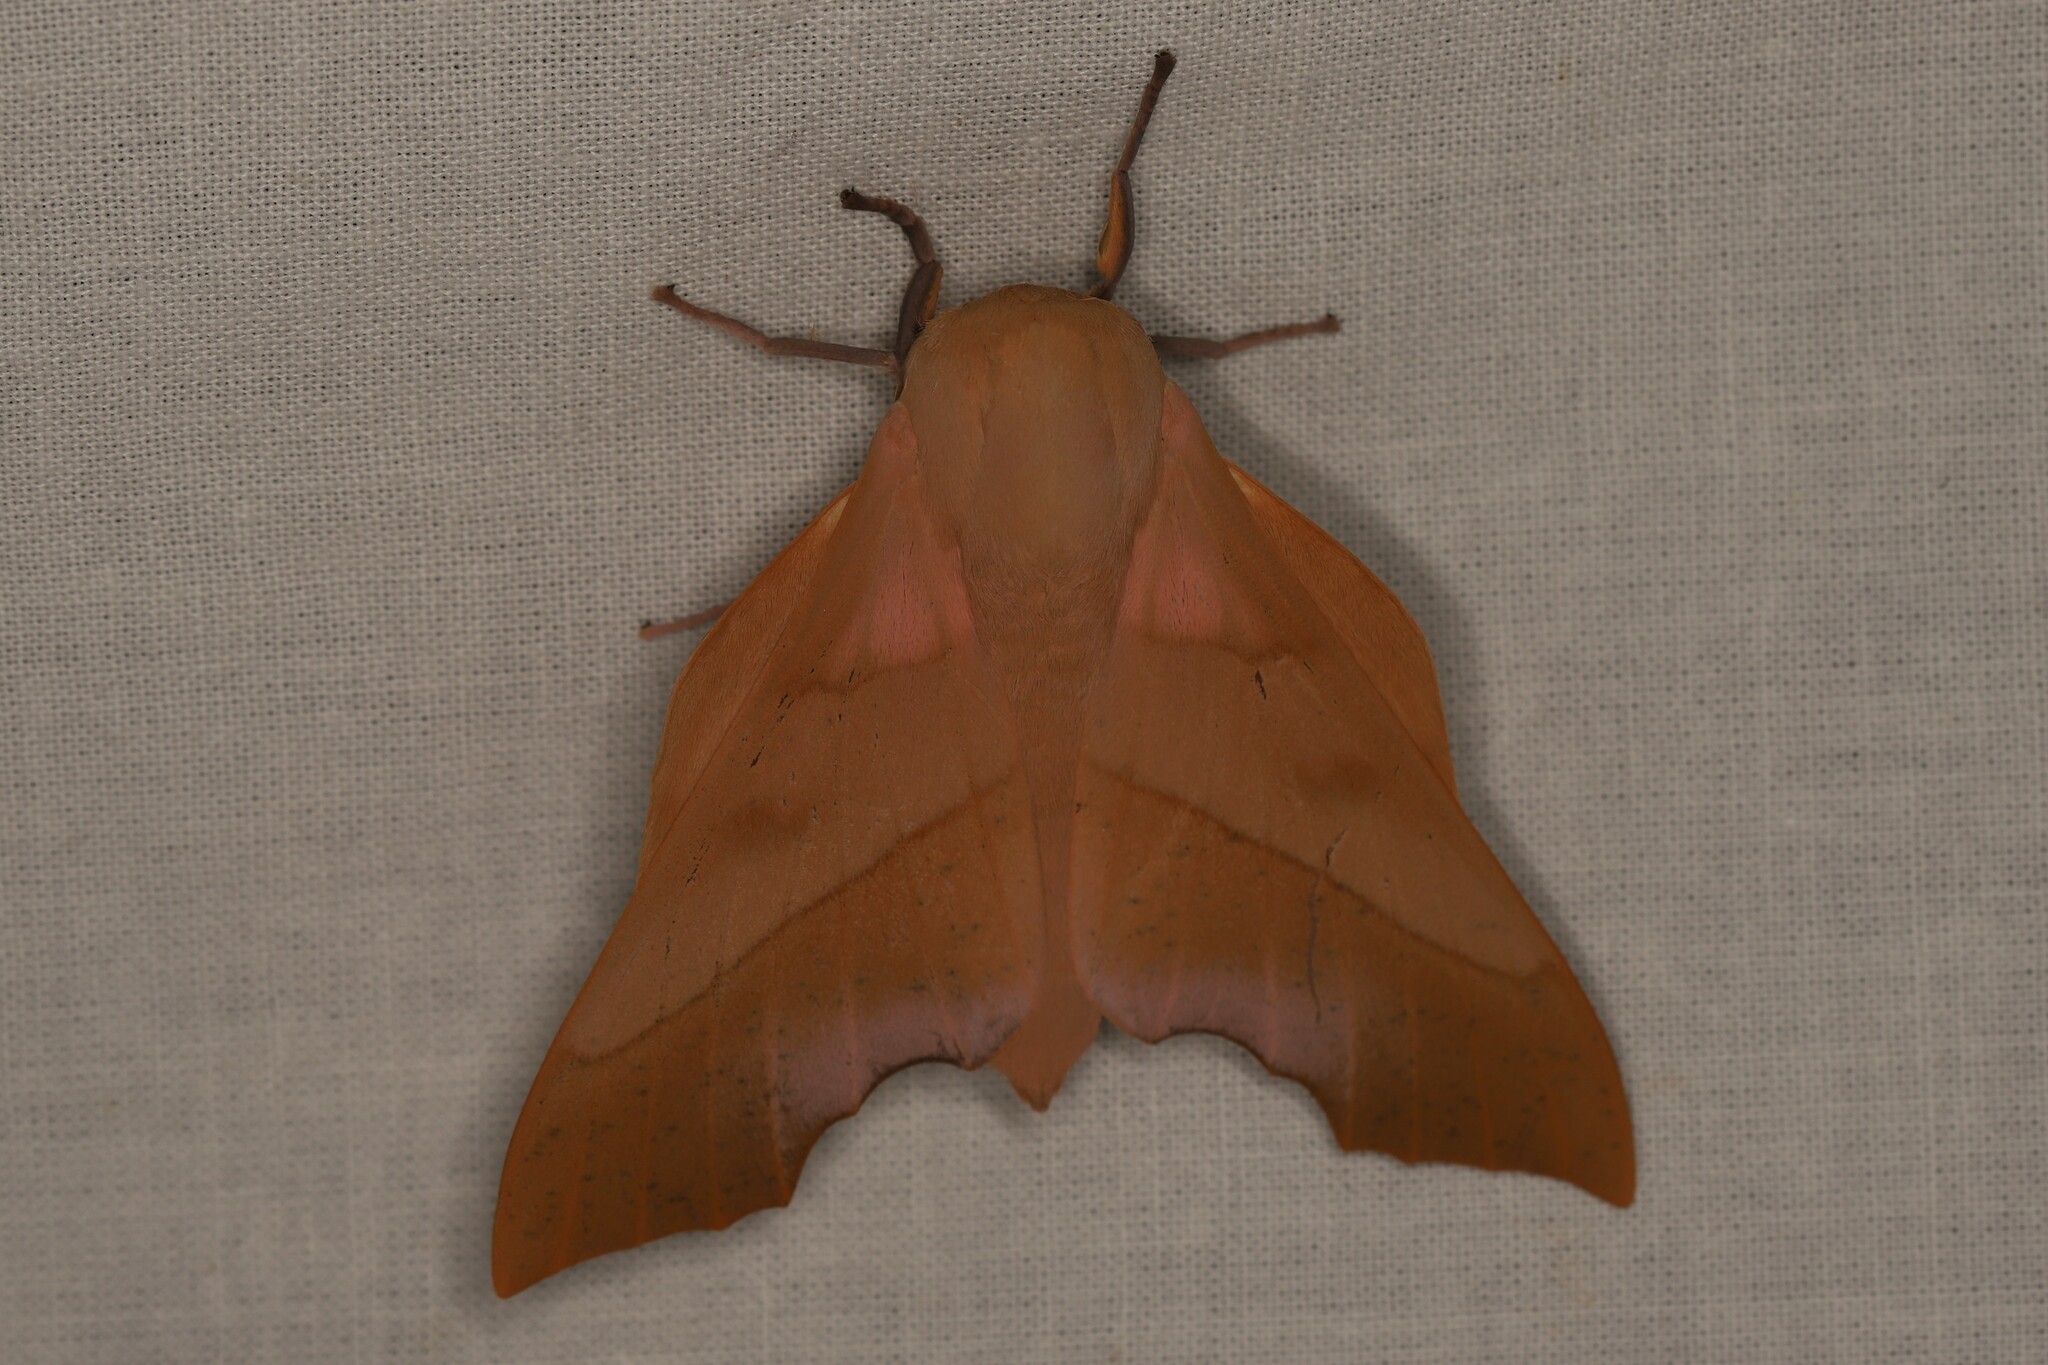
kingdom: Animalia
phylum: Arthropoda
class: Insecta
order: Lepidoptera
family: Saturniidae
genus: Syssphinx
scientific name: Syssphinx molina
